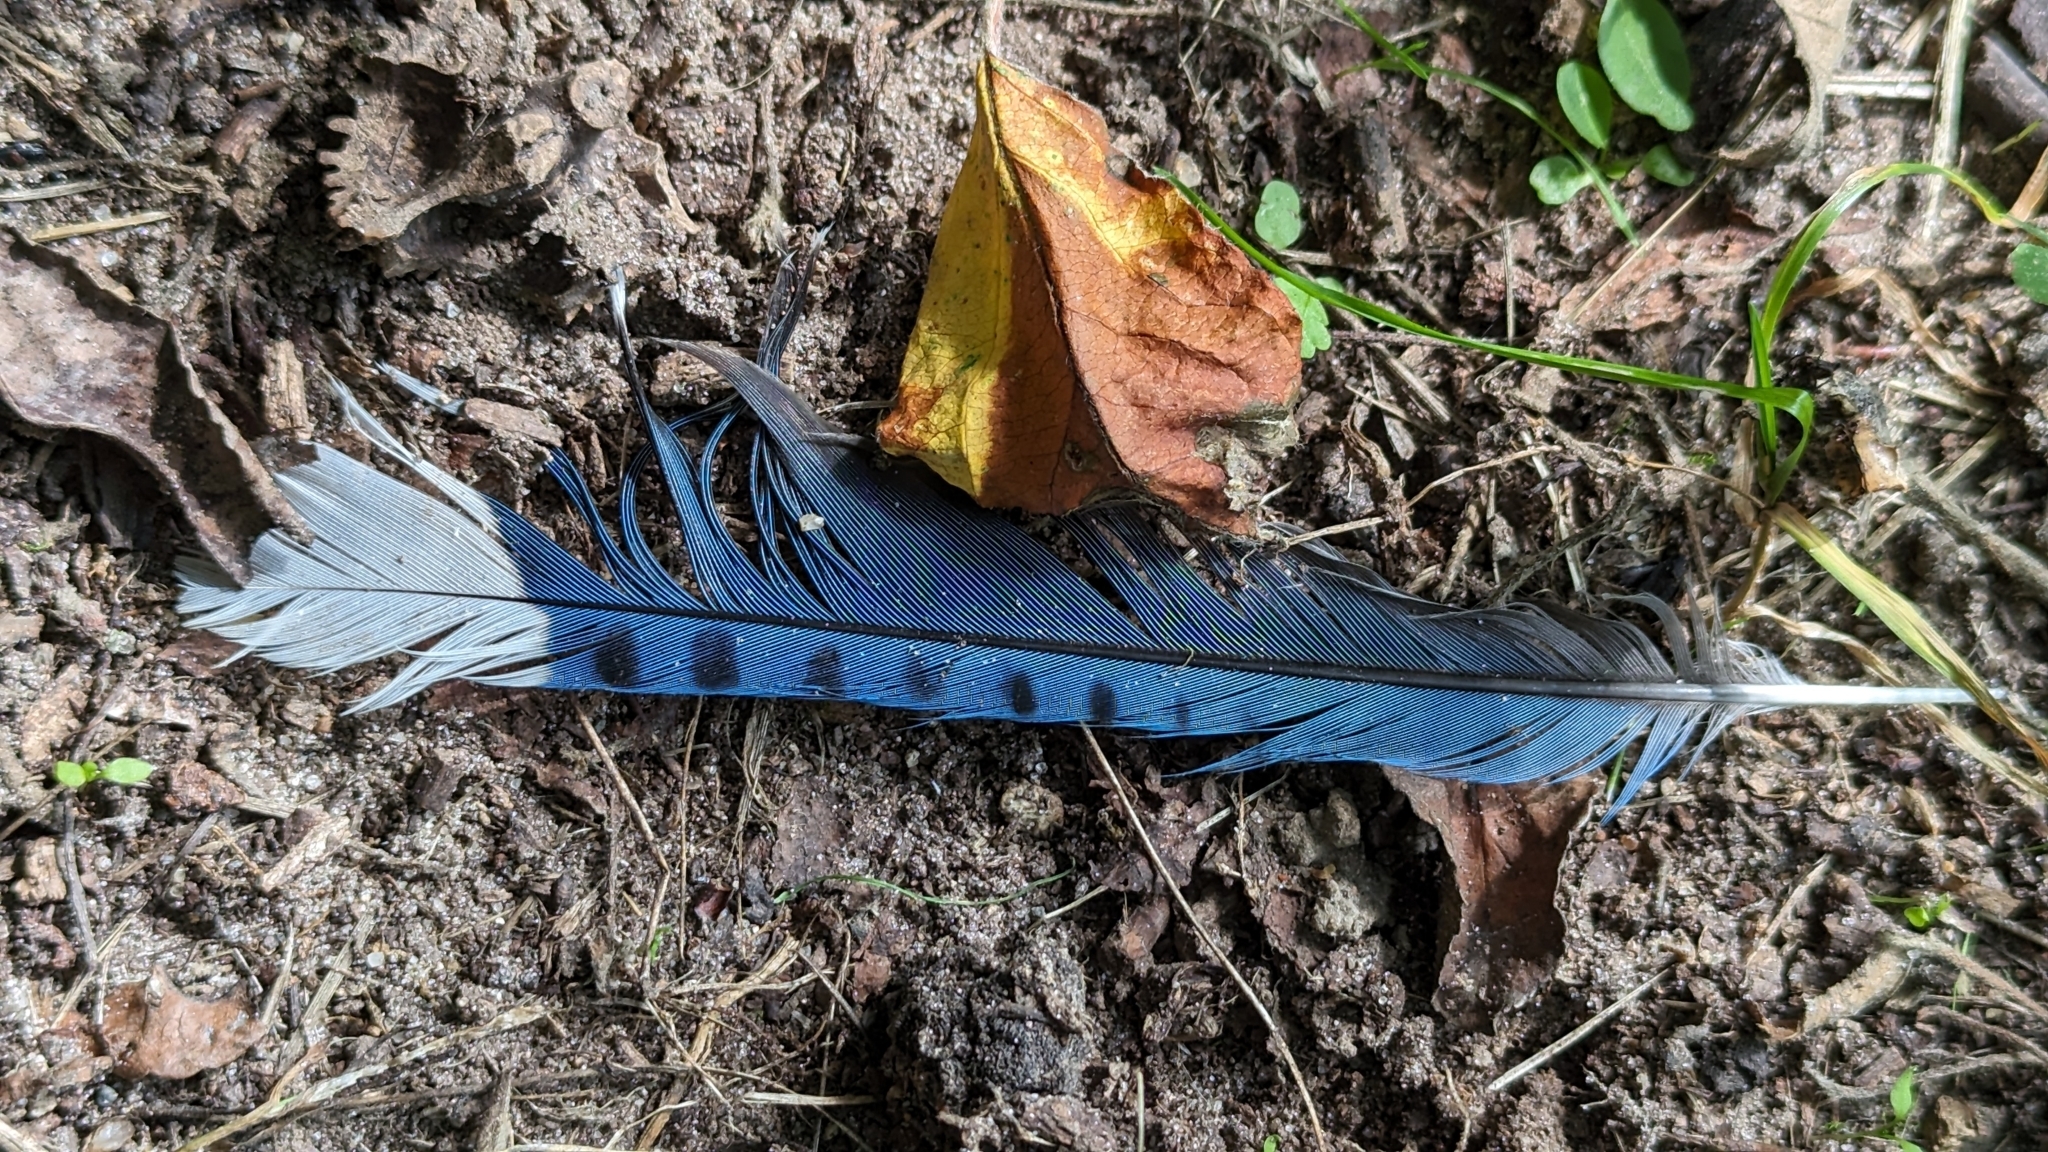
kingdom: Animalia
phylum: Chordata
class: Aves
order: Passeriformes
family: Corvidae
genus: Cyanocitta
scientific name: Cyanocitta cristata
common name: Blue jay
